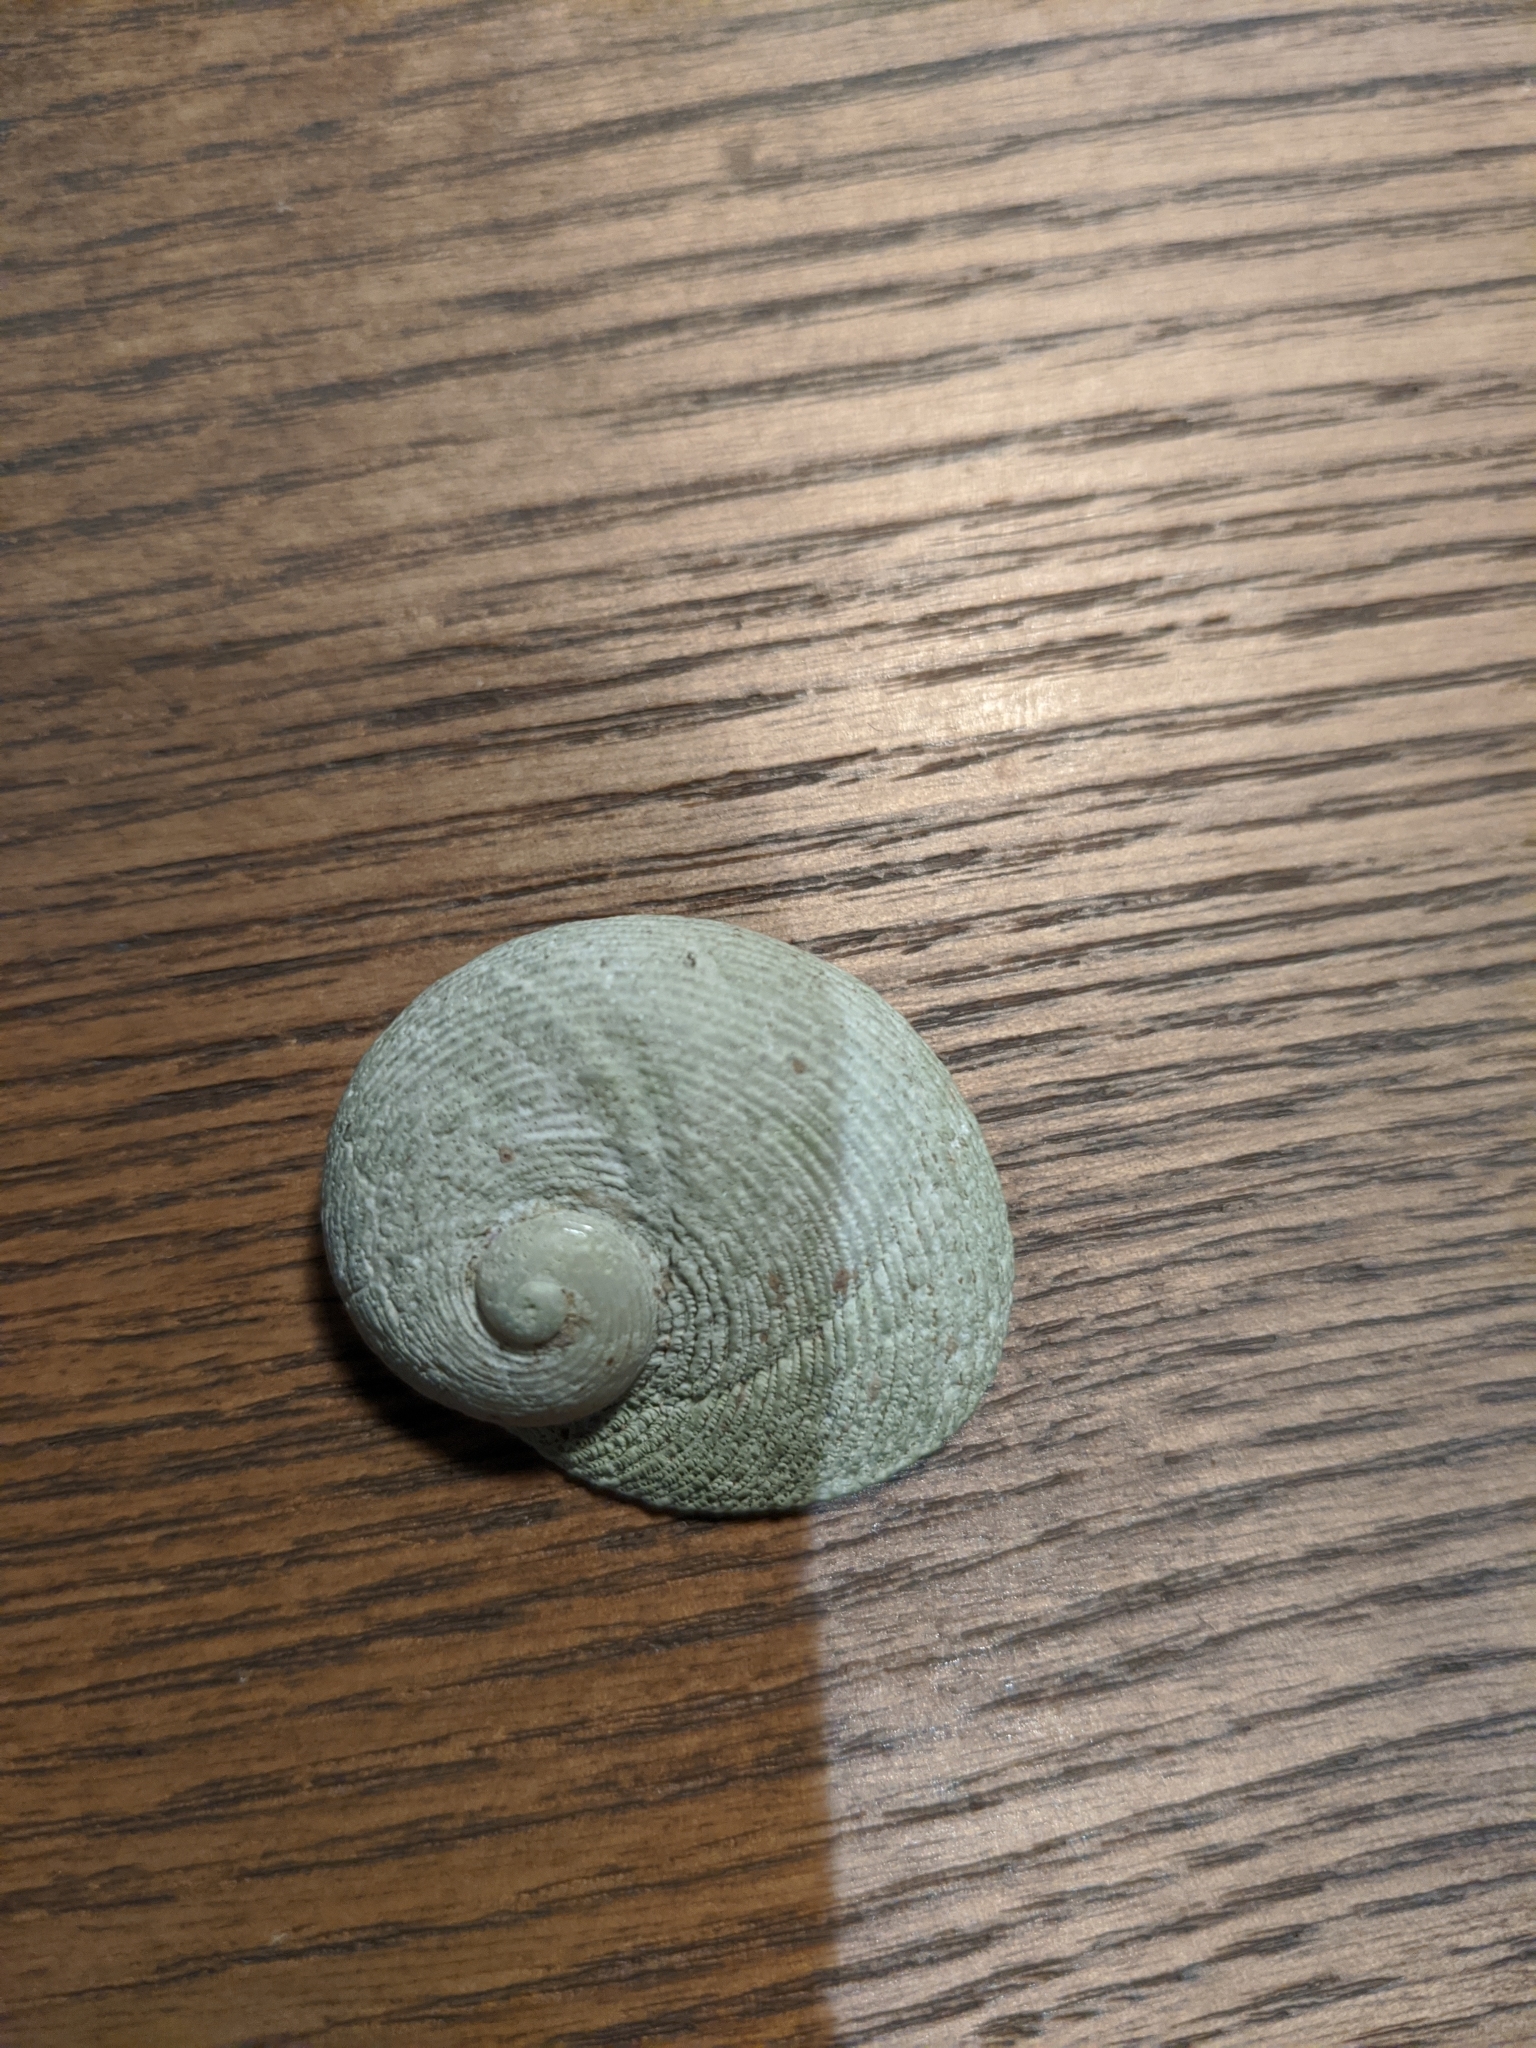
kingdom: Animalia
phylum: Mollusca
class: Gastropoda
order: Seguenziida
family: Chilodontaidae
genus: Granata
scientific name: Granata imbricata
